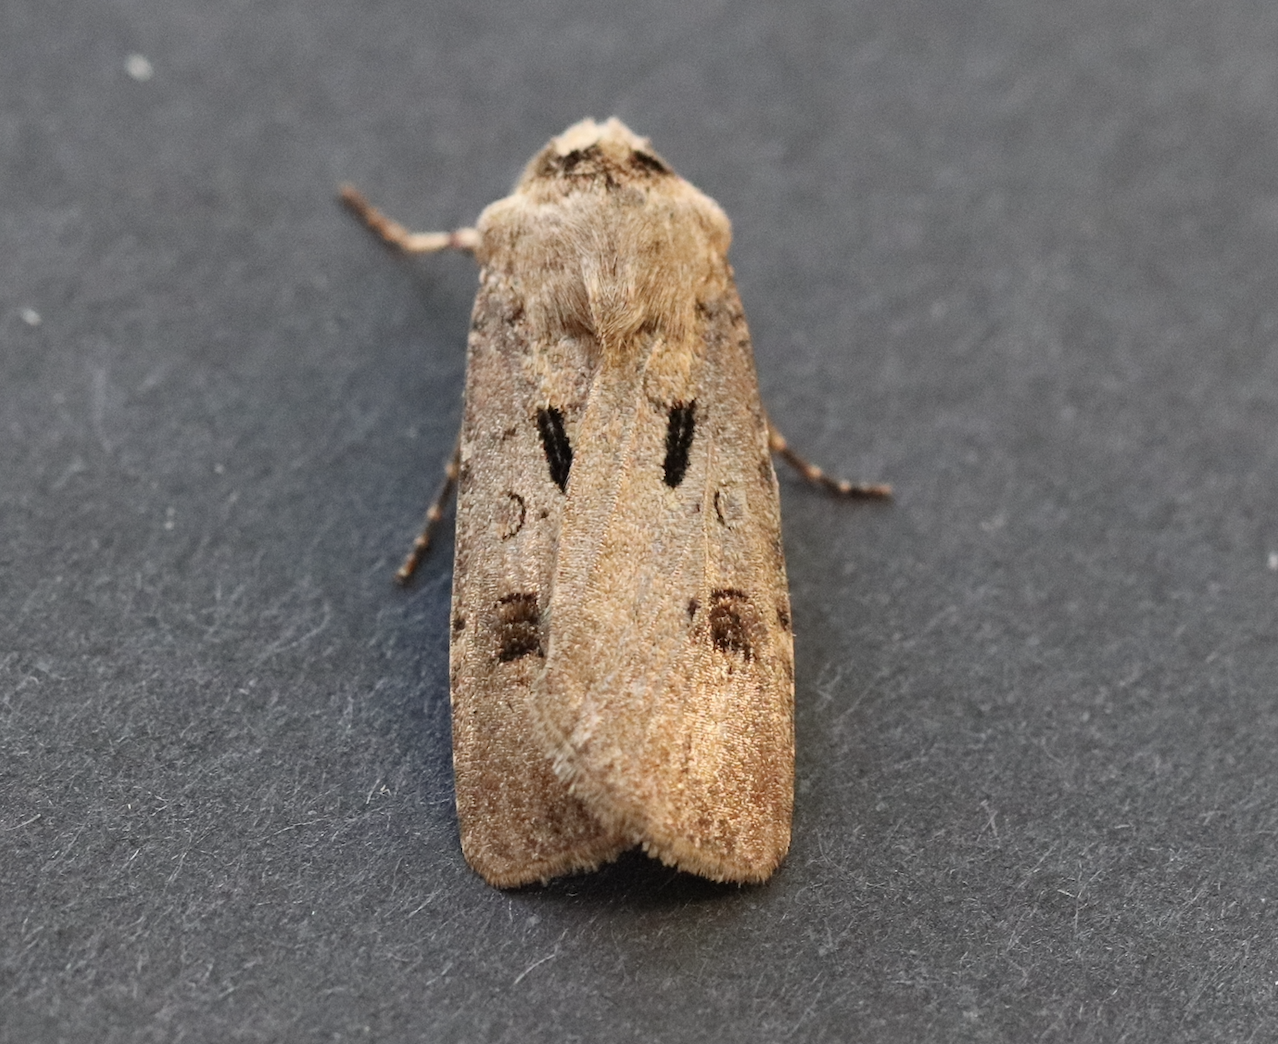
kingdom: Animalia
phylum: Arthropoda
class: Insecta
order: Lepidoptera
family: Noctuidae
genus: Agrotis
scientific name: Agrotis exclamationis
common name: Heart and dart
